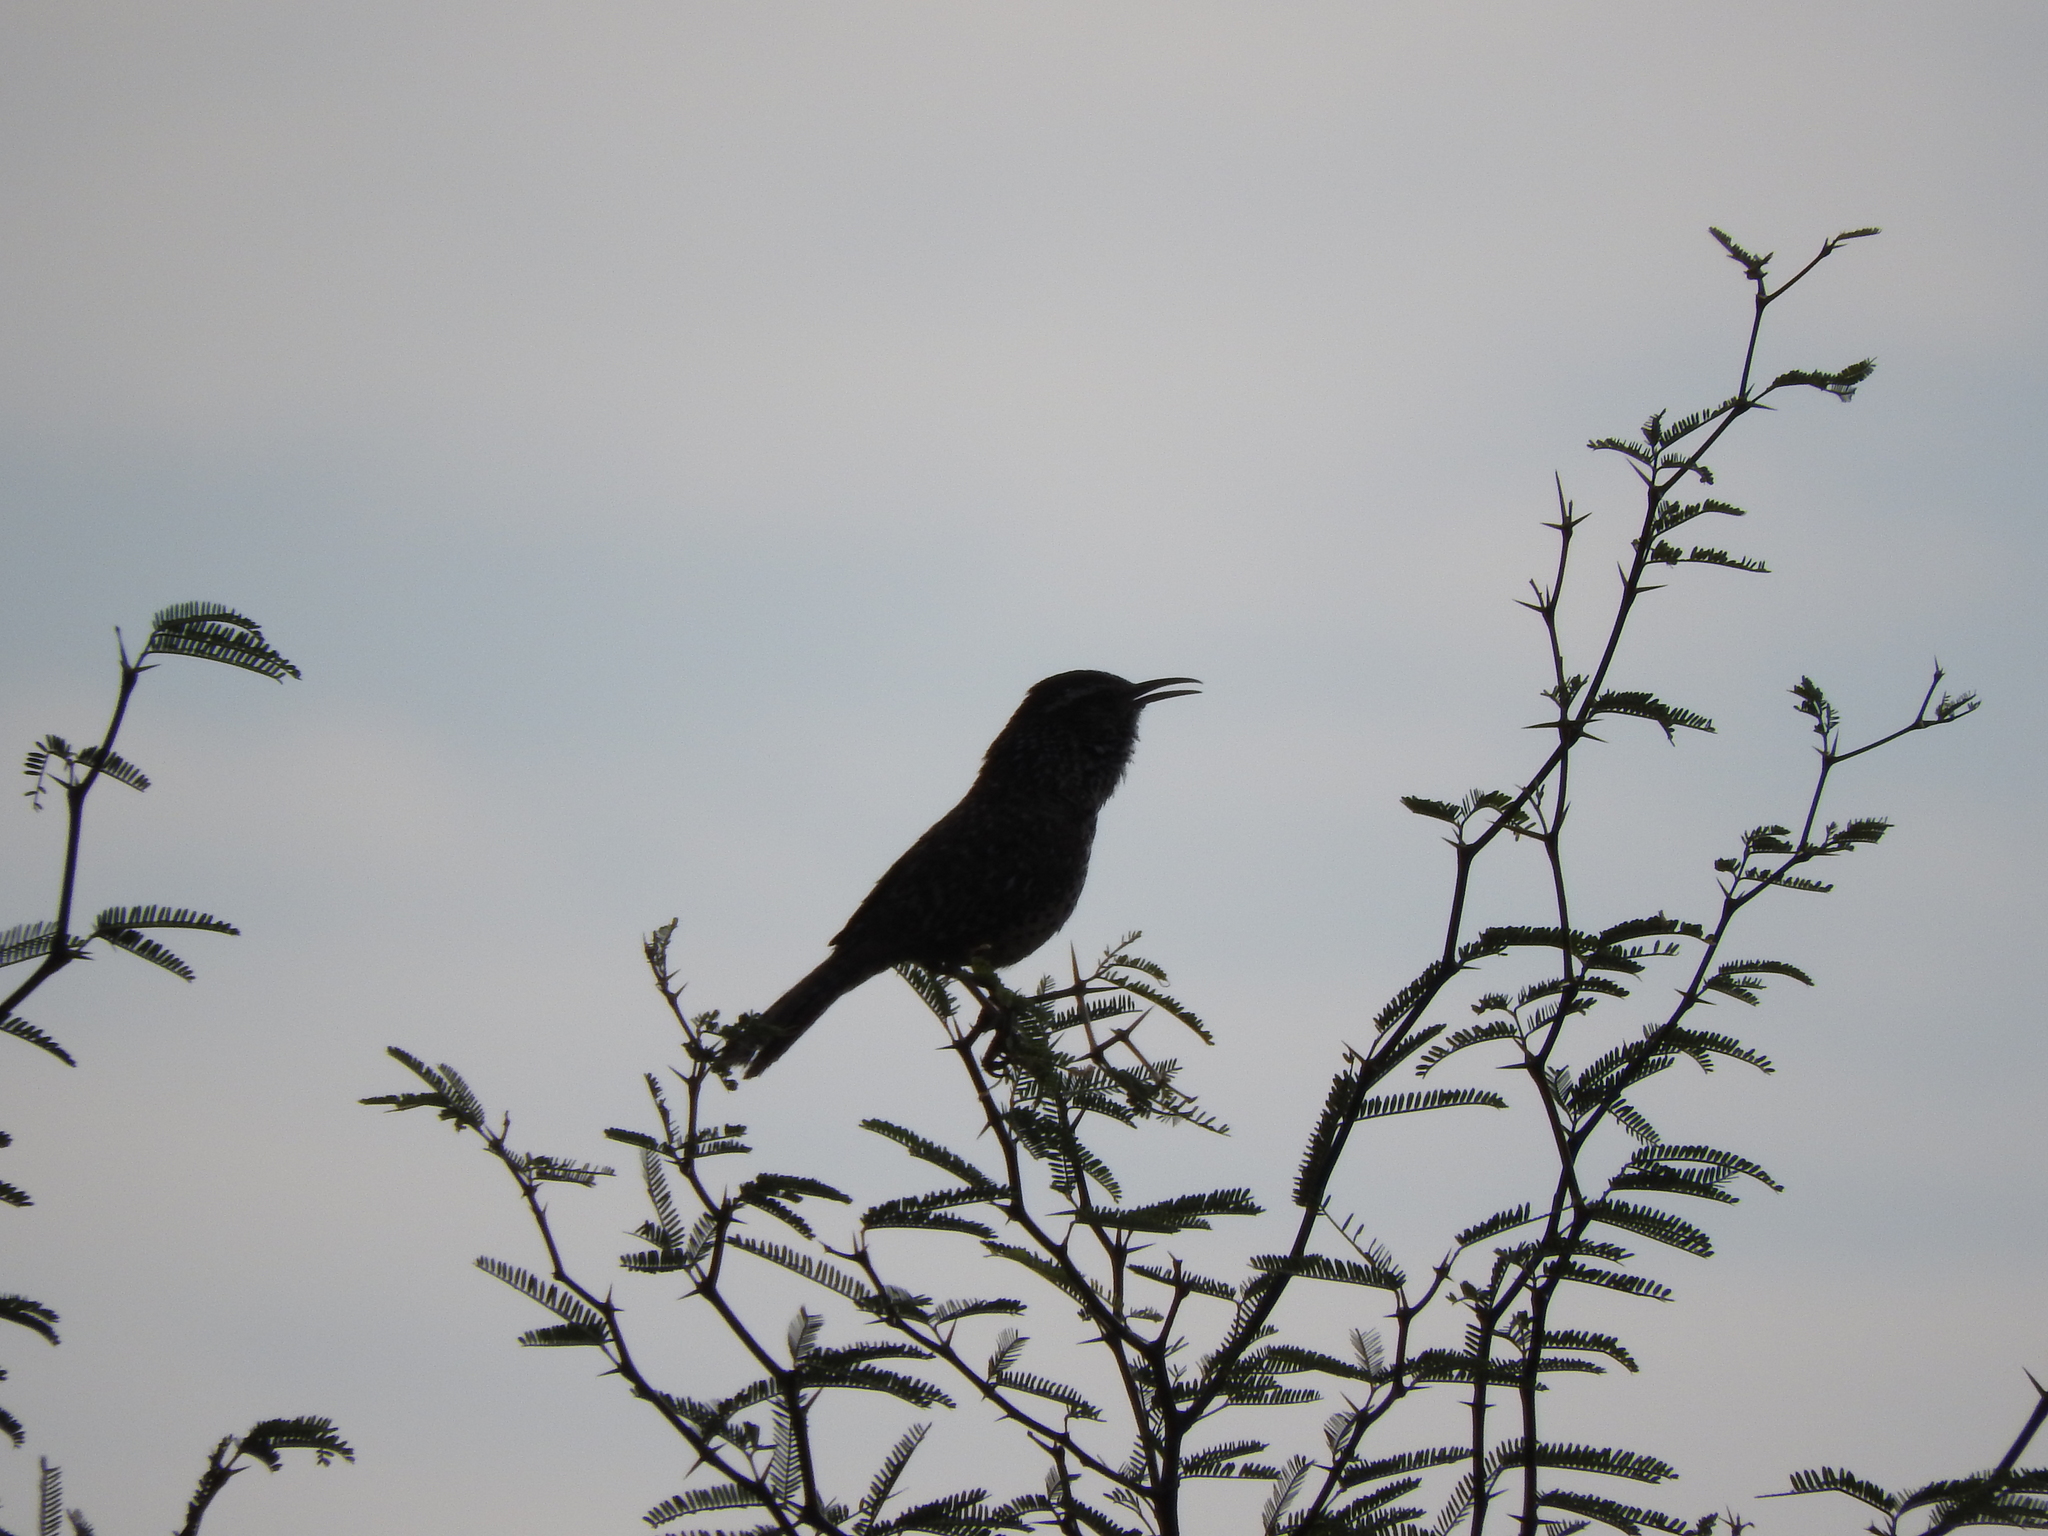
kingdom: Animalia
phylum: Chordata
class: Aves
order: Passeriformes
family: Troglodytidae
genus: Campylorhynchus
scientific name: Campylorhynchus brunneicapillus
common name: Cactus wren
